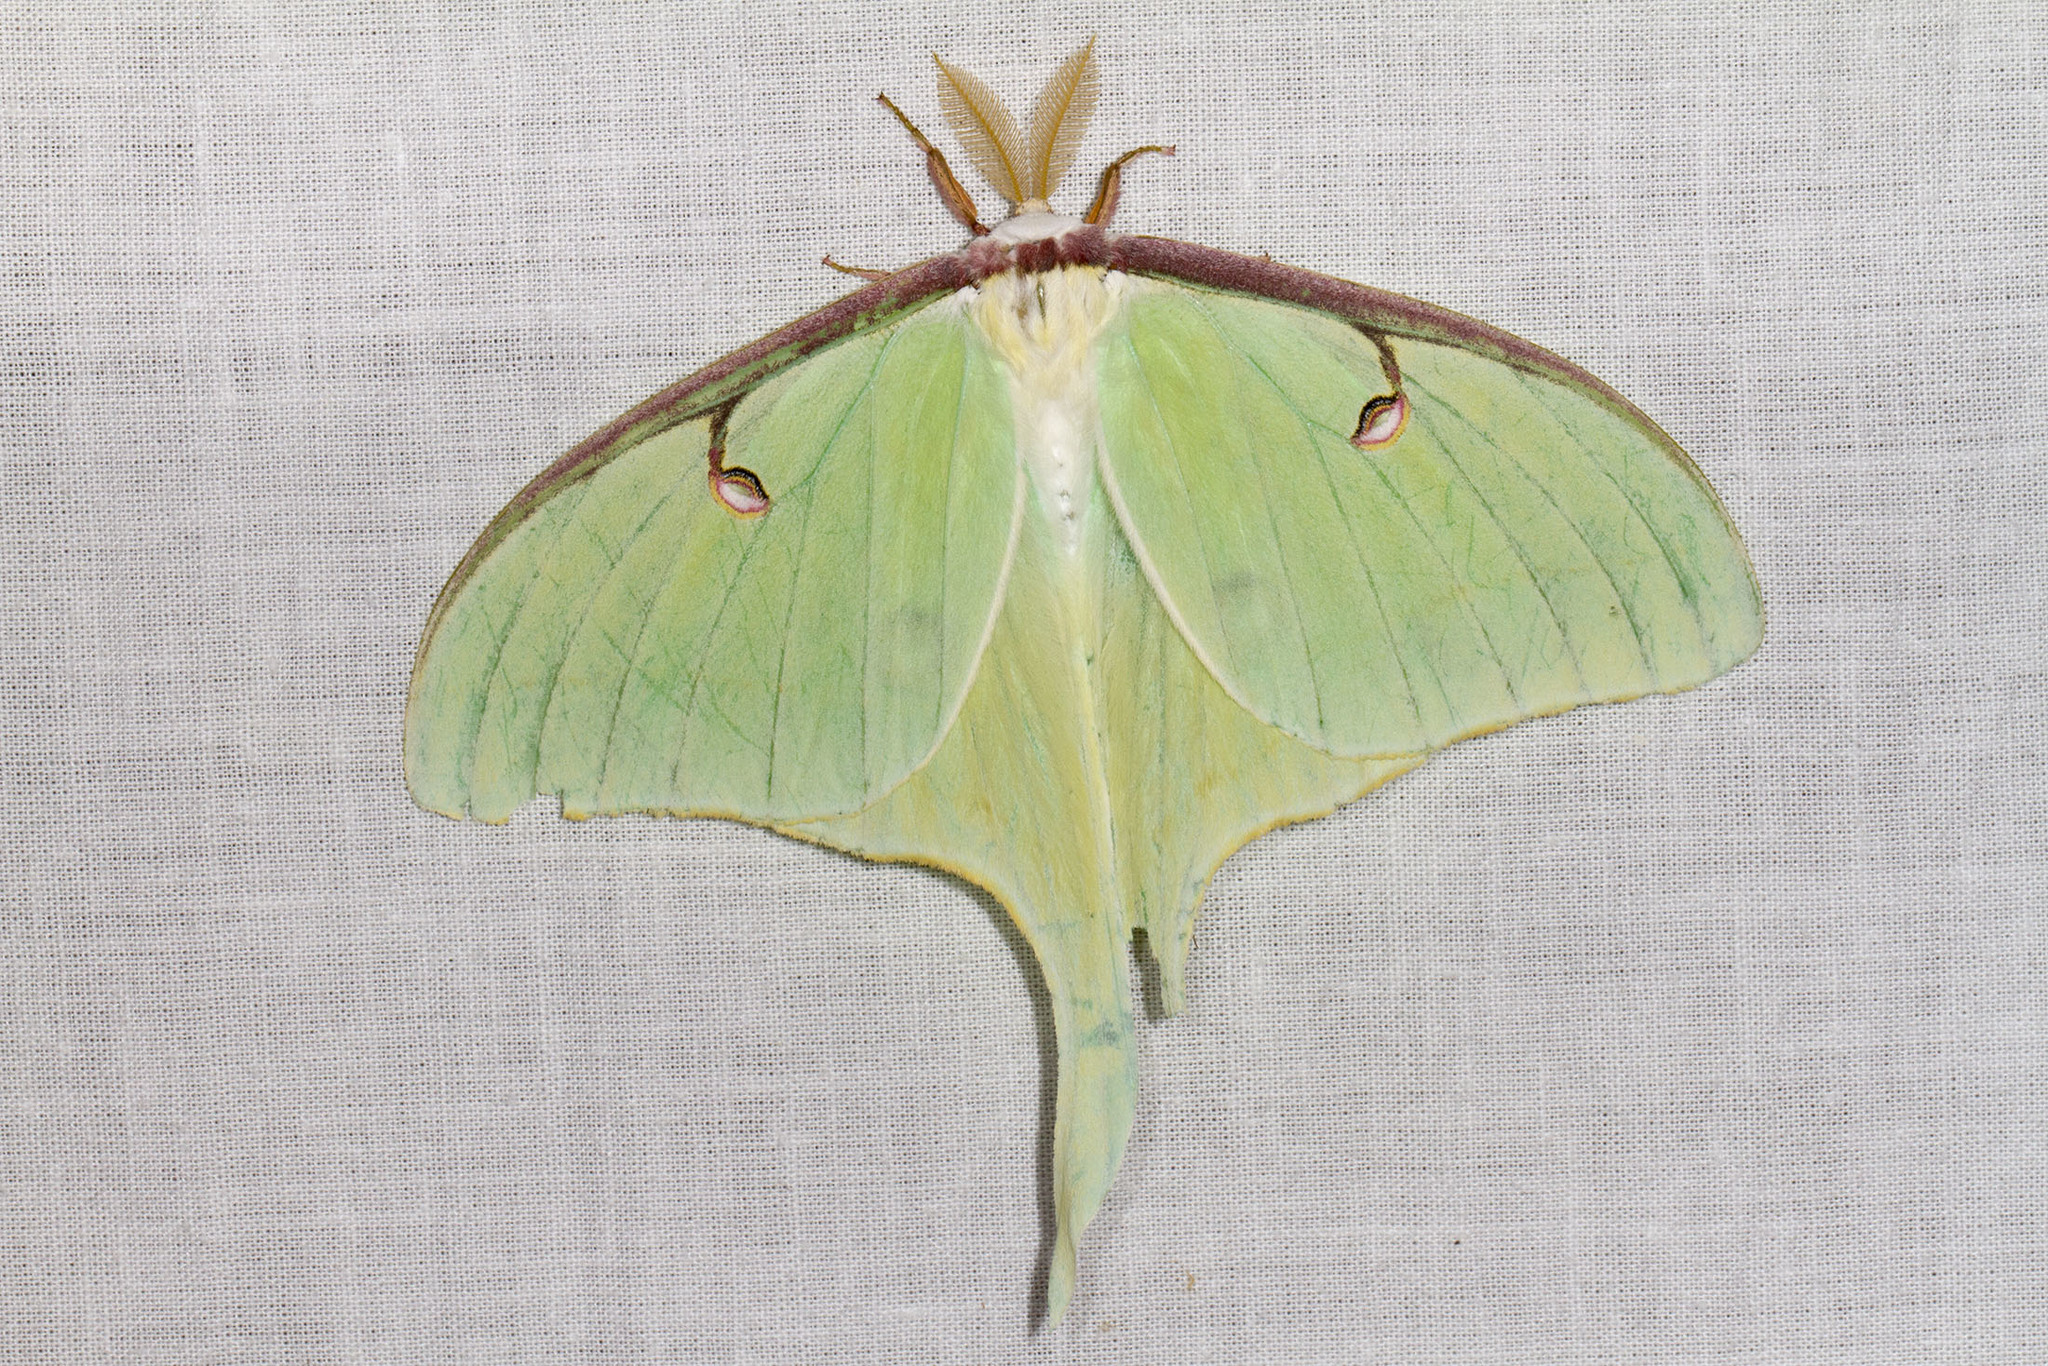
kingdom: Animalia
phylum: Arthropoda
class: Insecta
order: Lepidoptera
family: Saturniidae
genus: Actias
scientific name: Actias luna
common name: Luna moth
